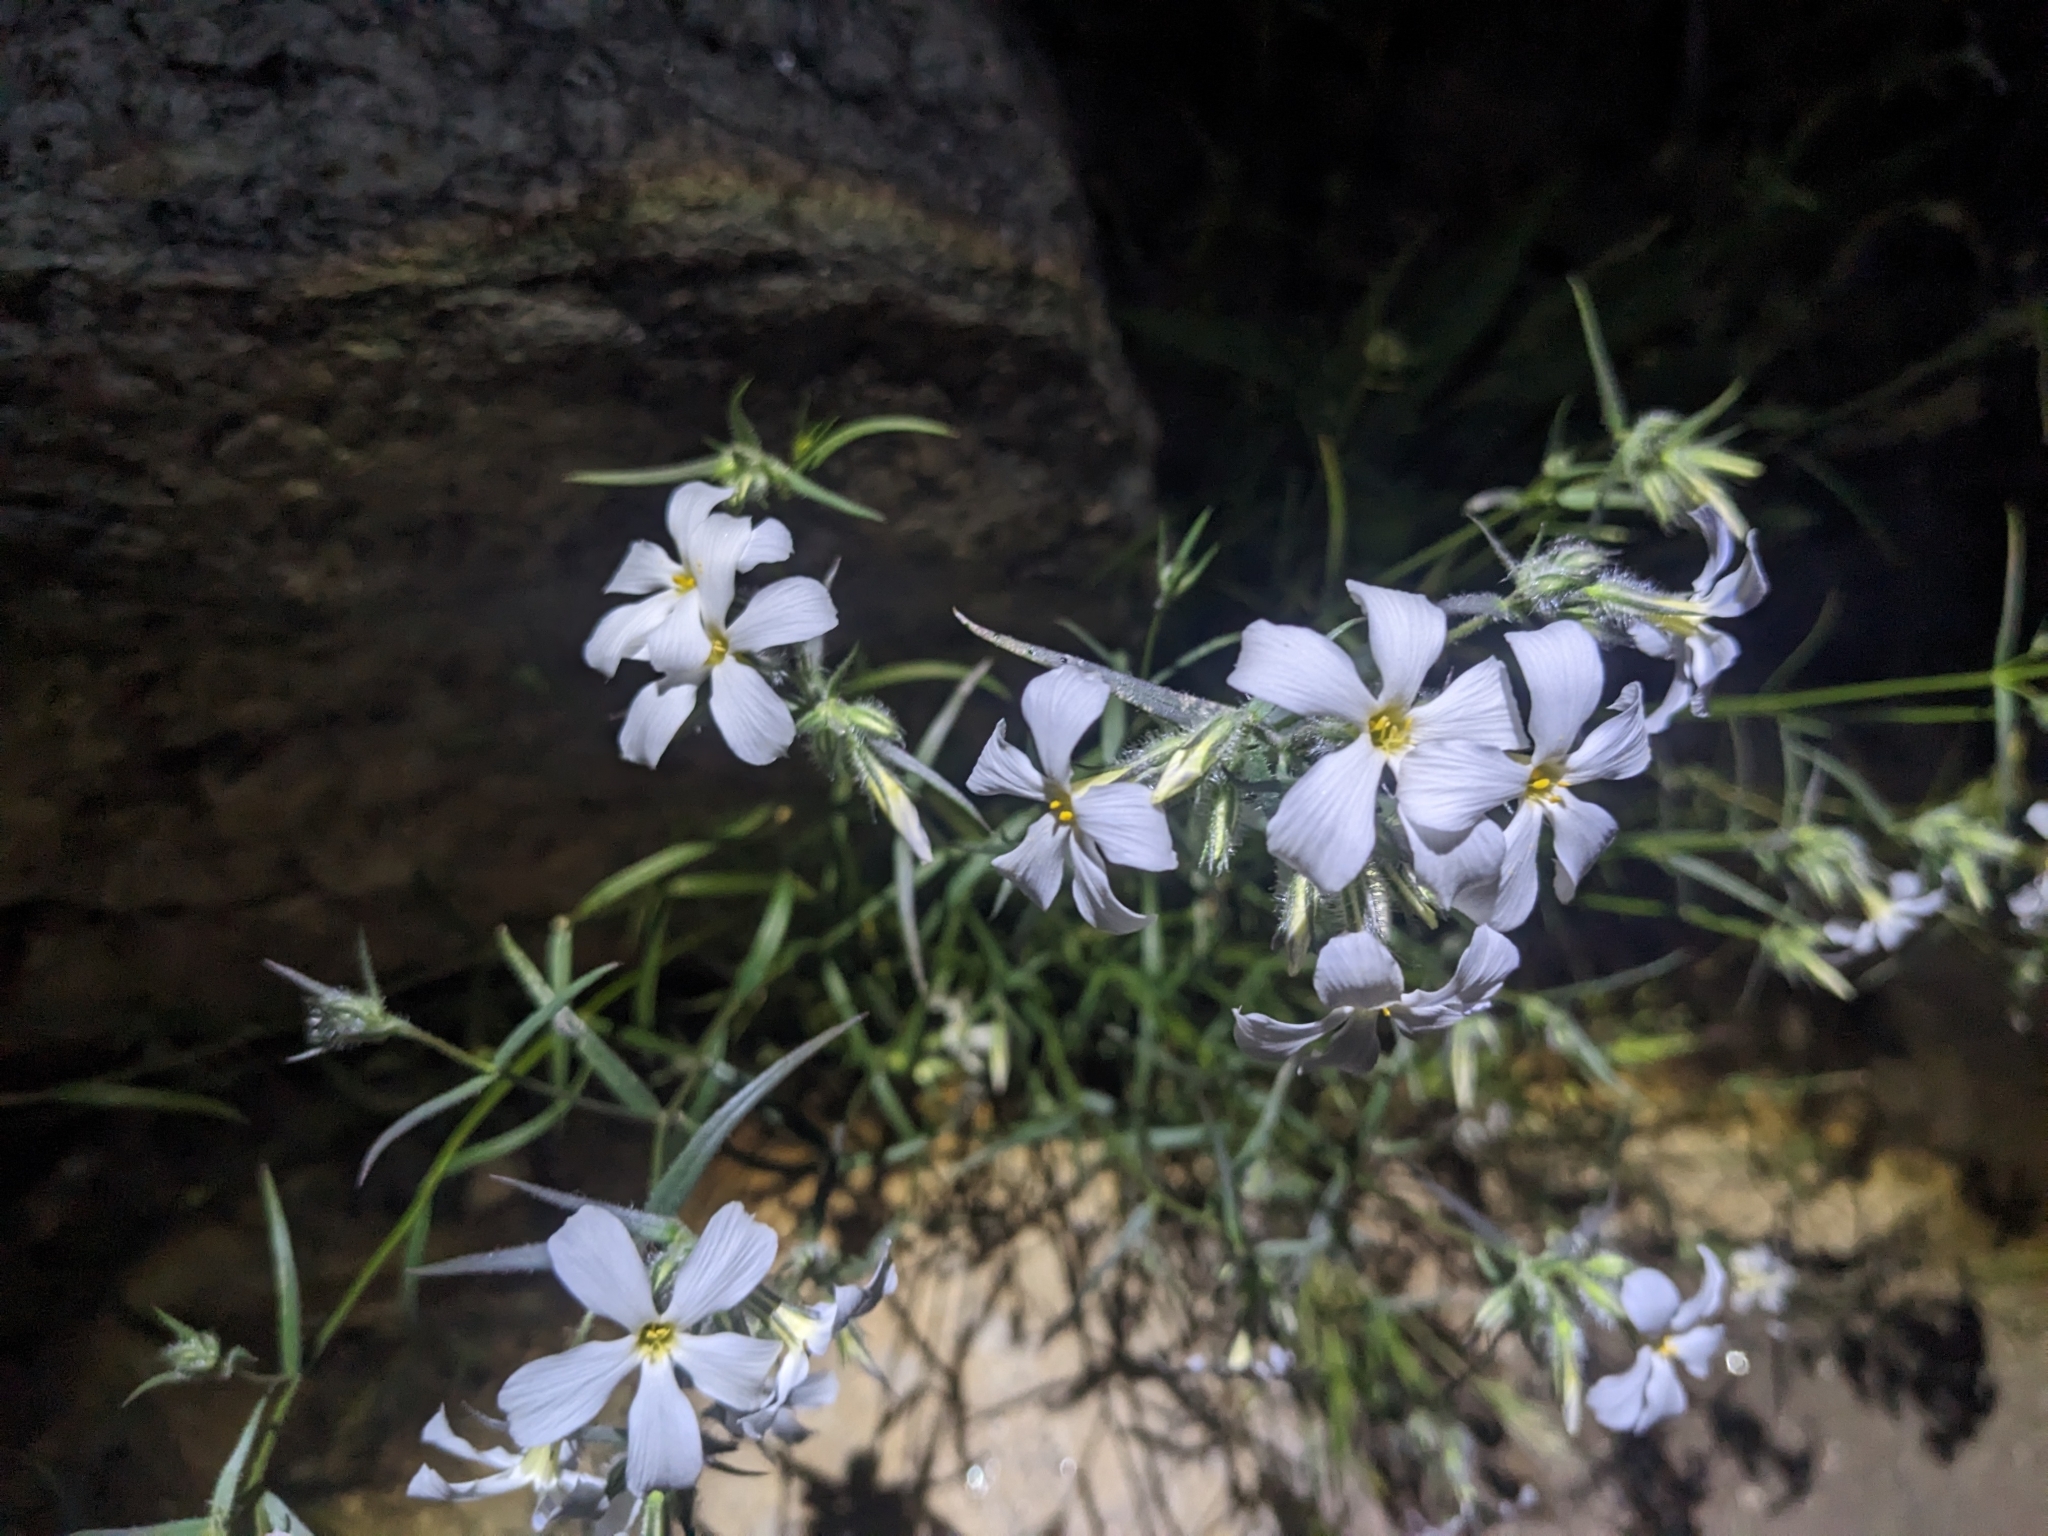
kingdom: Plantae
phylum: Tracheophyta
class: Magnoliopsida
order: Ericales
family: Polemoniaceae
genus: Phlox
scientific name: Phlox tenuifolia
